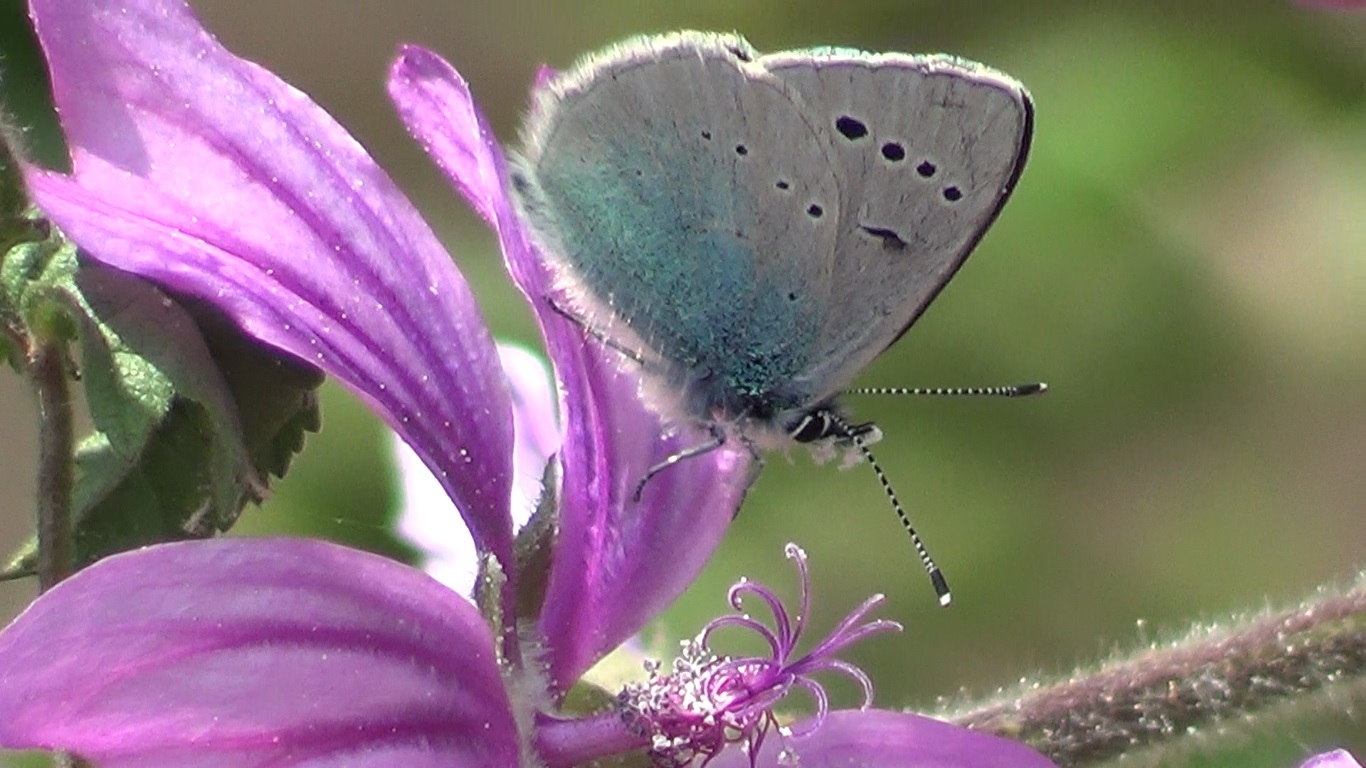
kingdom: Animalia
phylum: Arthropoda
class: Insecta
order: Lepidoptera
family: Lycaenidae
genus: Glaucopsyche
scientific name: Glaucopsyche alexis
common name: Green-underside blue
